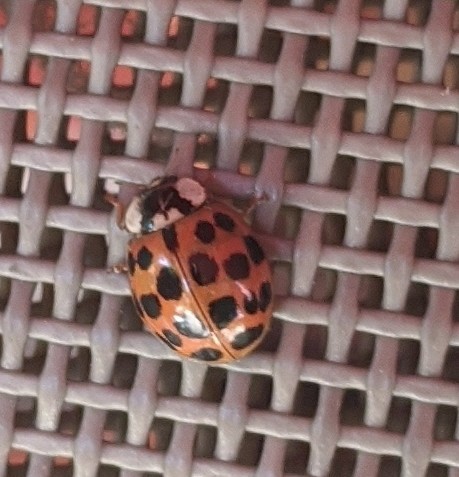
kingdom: Animalia
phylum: Arthropoda
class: Insecta
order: Coleoptera
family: Coccinellidae
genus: Harmonia
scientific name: Harmonia axyridis
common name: Harlequin ladybird
